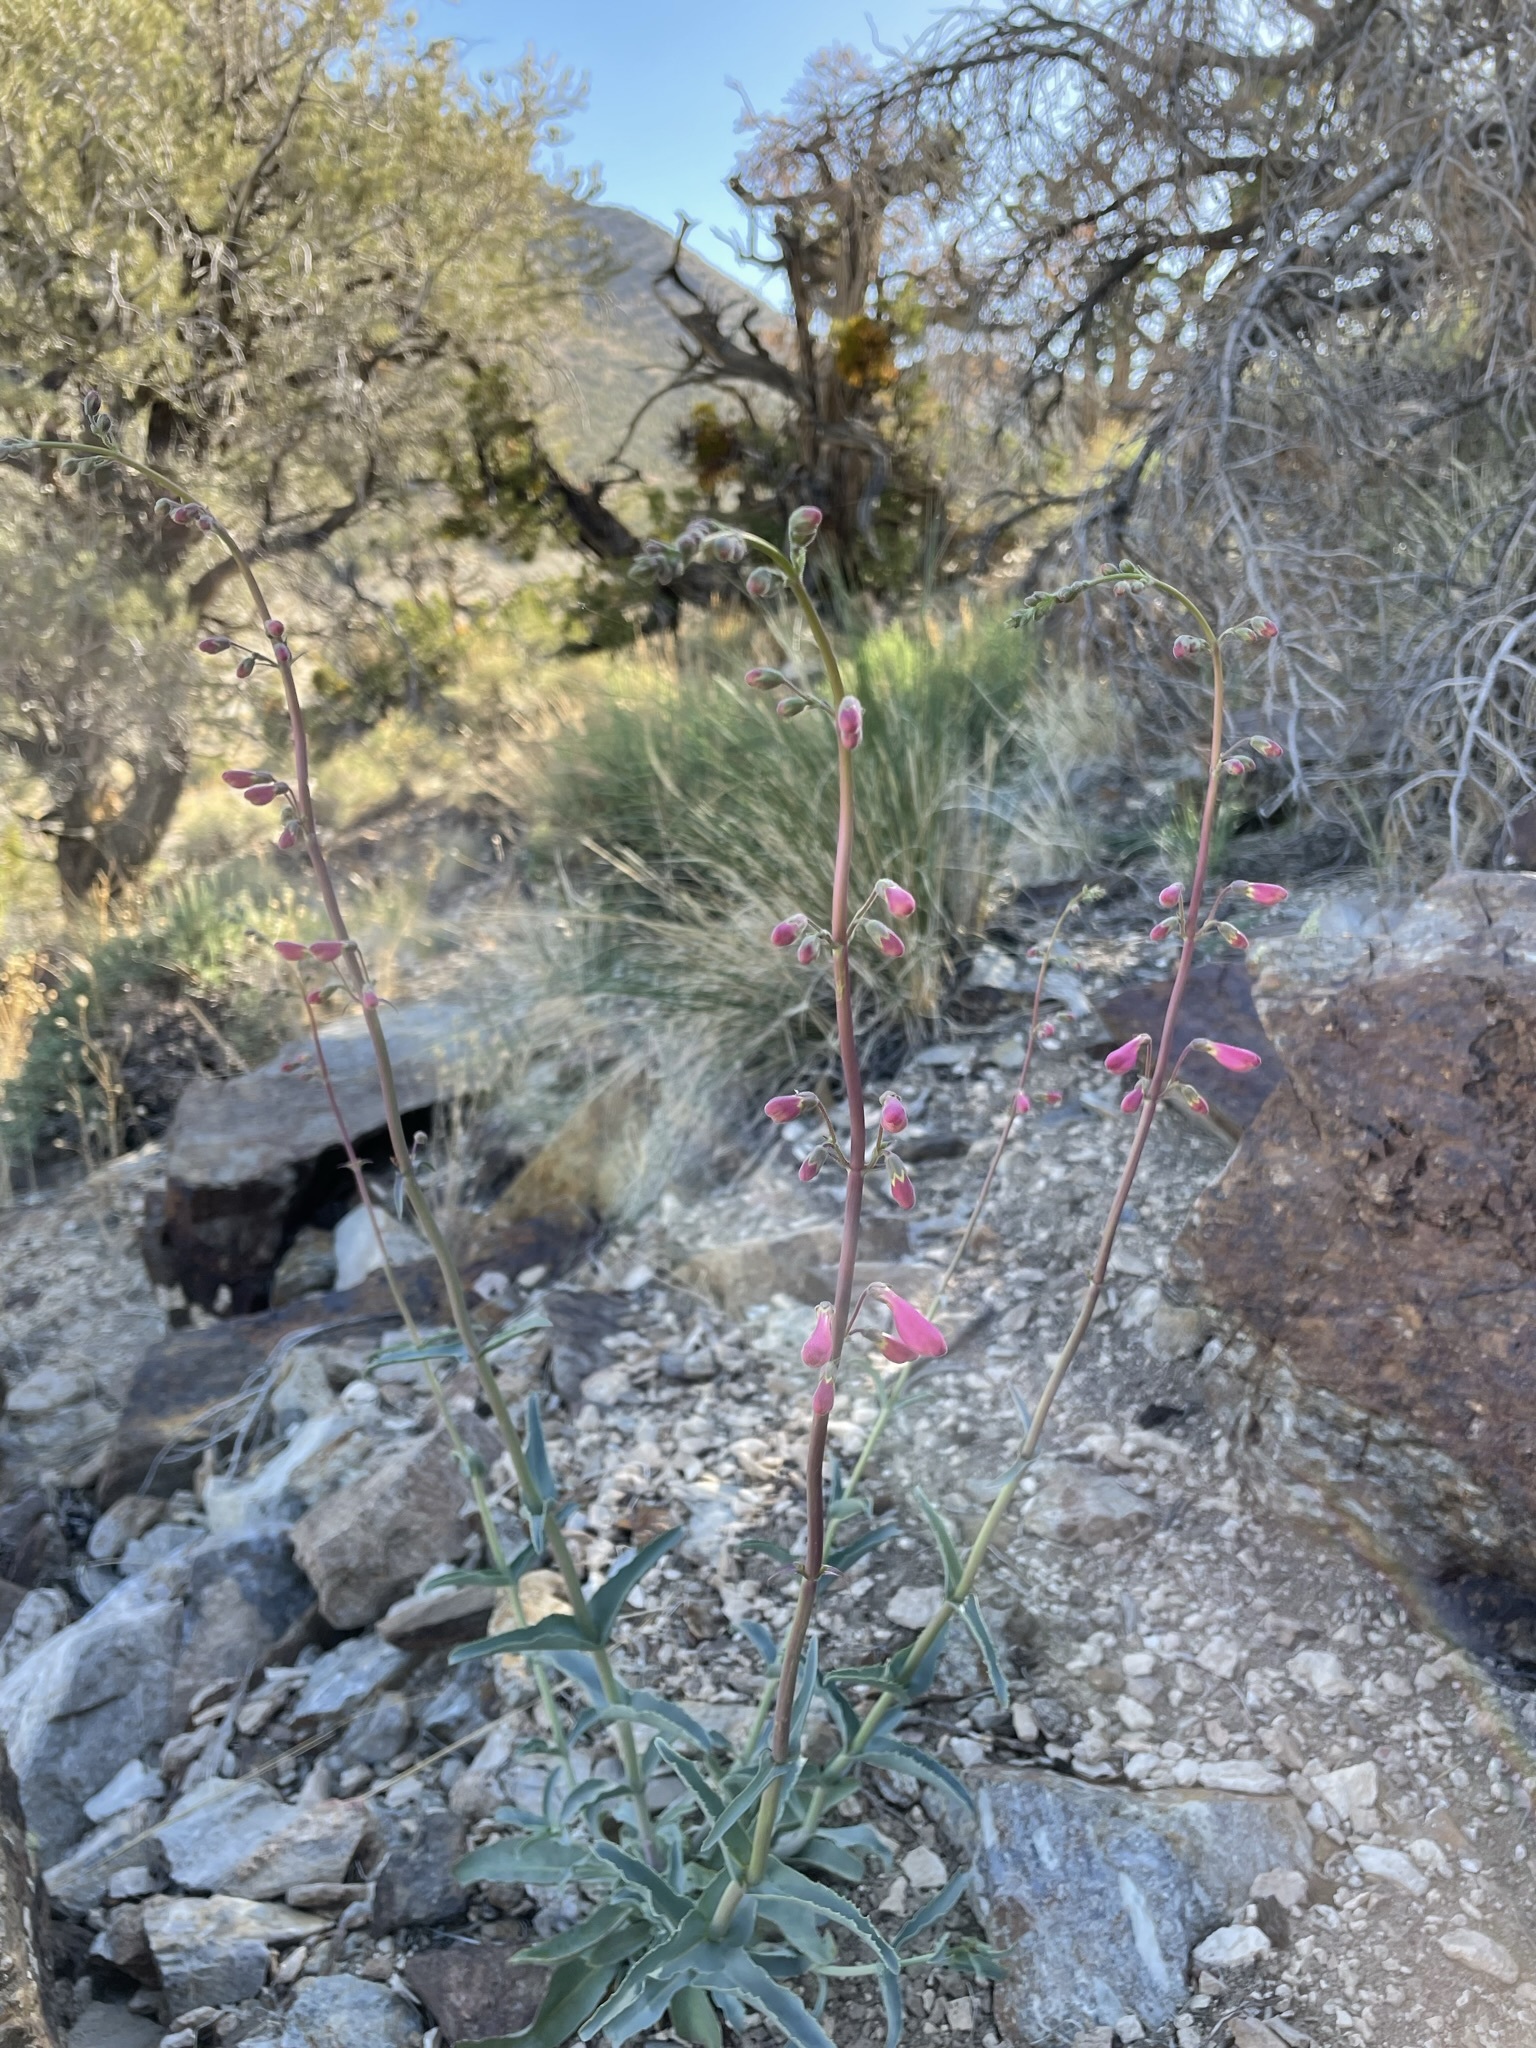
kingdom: Plantae
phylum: Tracheophyta
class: Magnoliopsida
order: Lamiales
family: Plantaginaceae
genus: Penstemon
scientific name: Penstemon floridus
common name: Panamint penstemon
